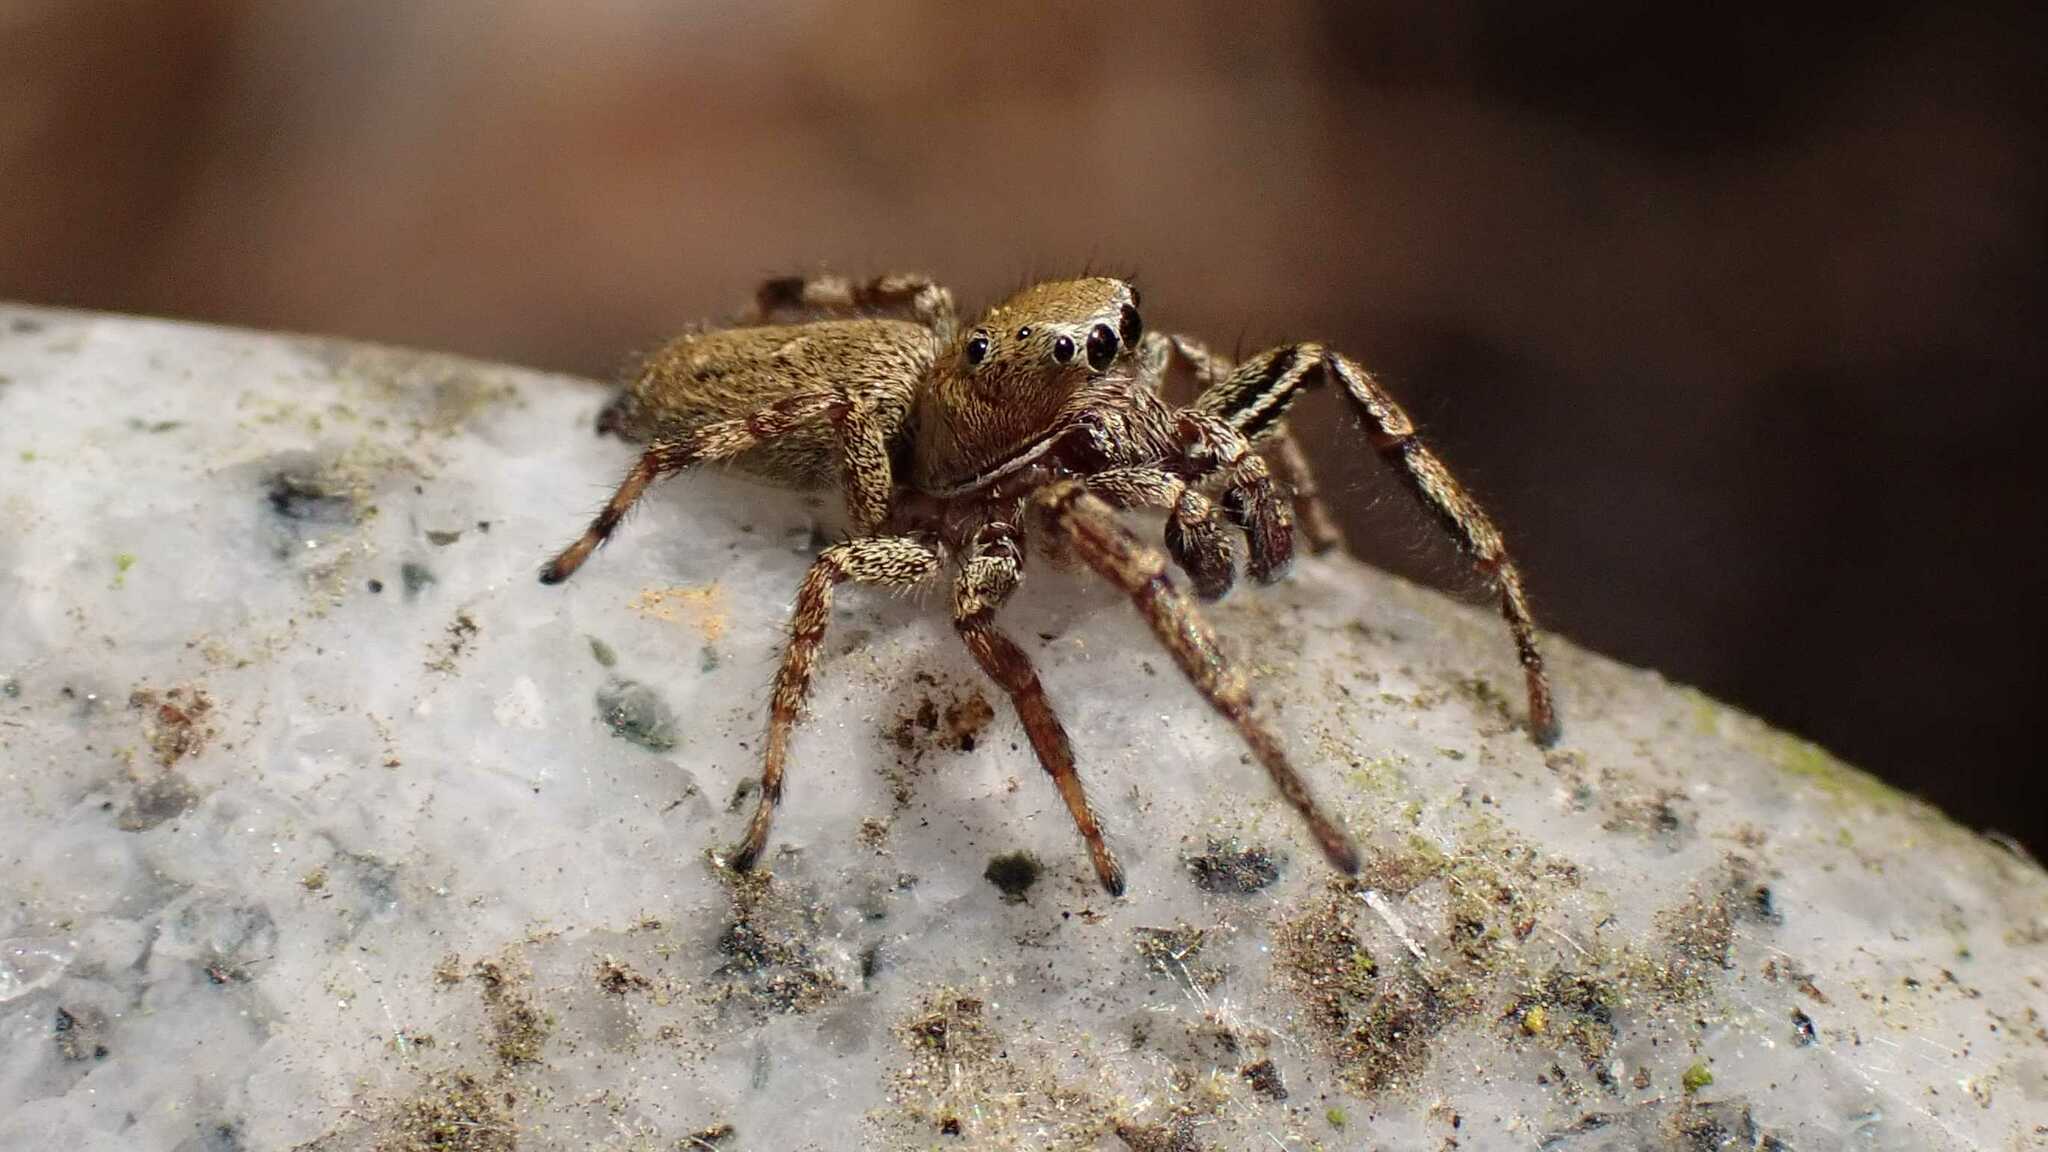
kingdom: Animalia
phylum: Arthropoda
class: Arachnida
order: Araneae
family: Salticidae
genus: Dendryphantes
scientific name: Dendryphantes rudis
